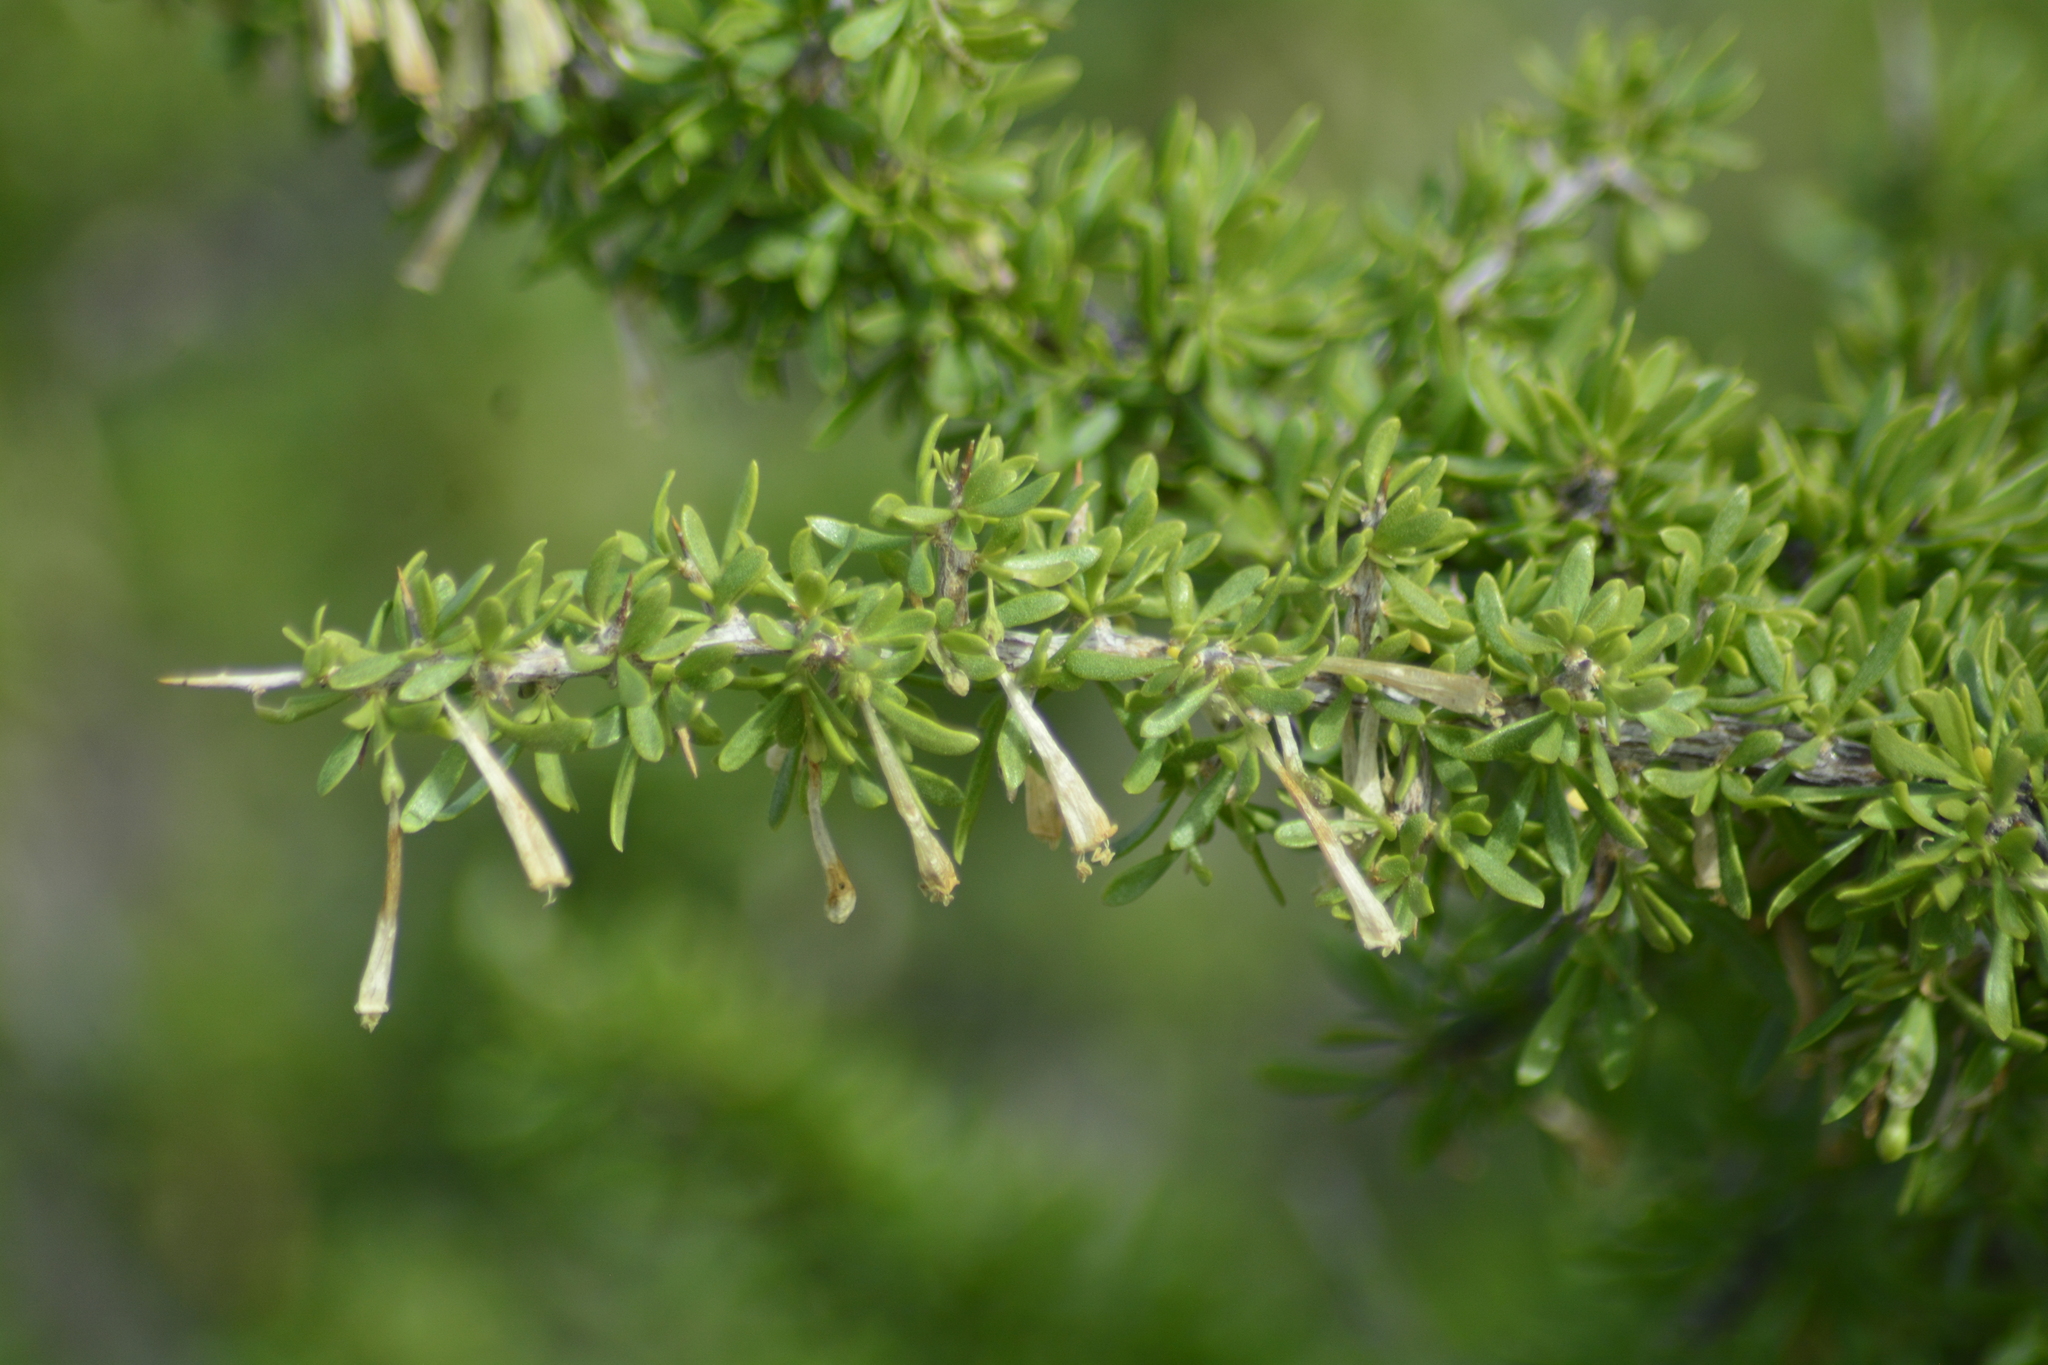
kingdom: Plantae
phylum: Tracheophyta
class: Magnoliopsida
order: Solanales
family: Solanaceae
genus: Lycium
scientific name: Lycium gilliesianum
